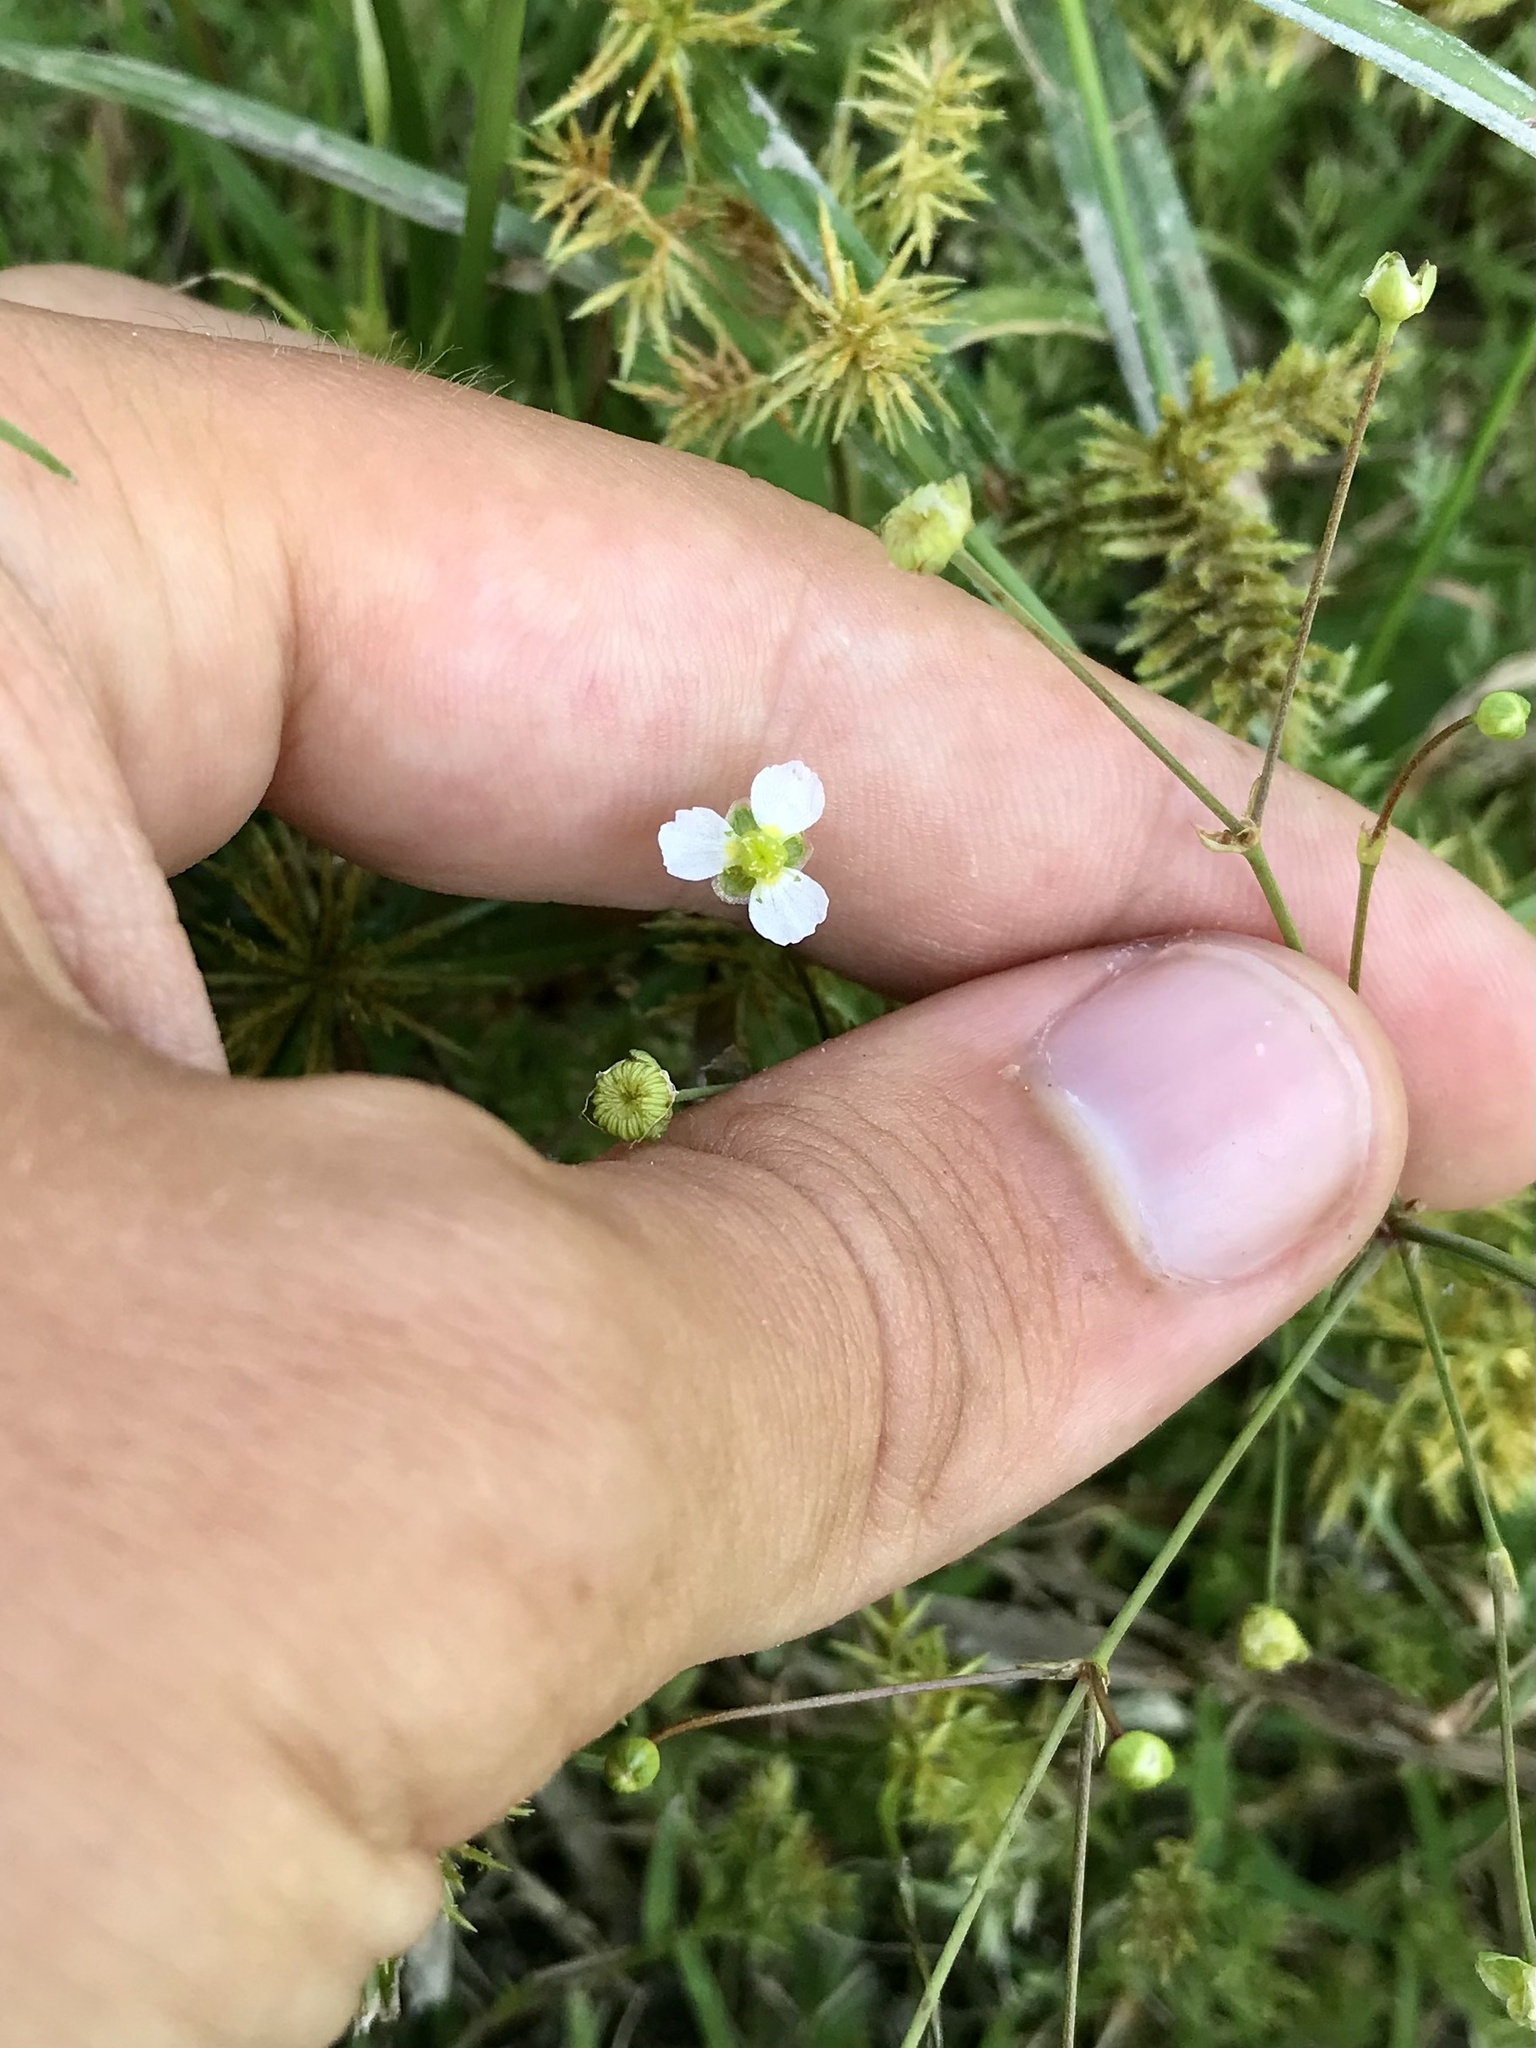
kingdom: Plantae
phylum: Tracheophyta
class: Liliopsida
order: Alismatales
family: Alismataceae
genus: Alisma
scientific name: Alisma triviale
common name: Northern water-plantain
